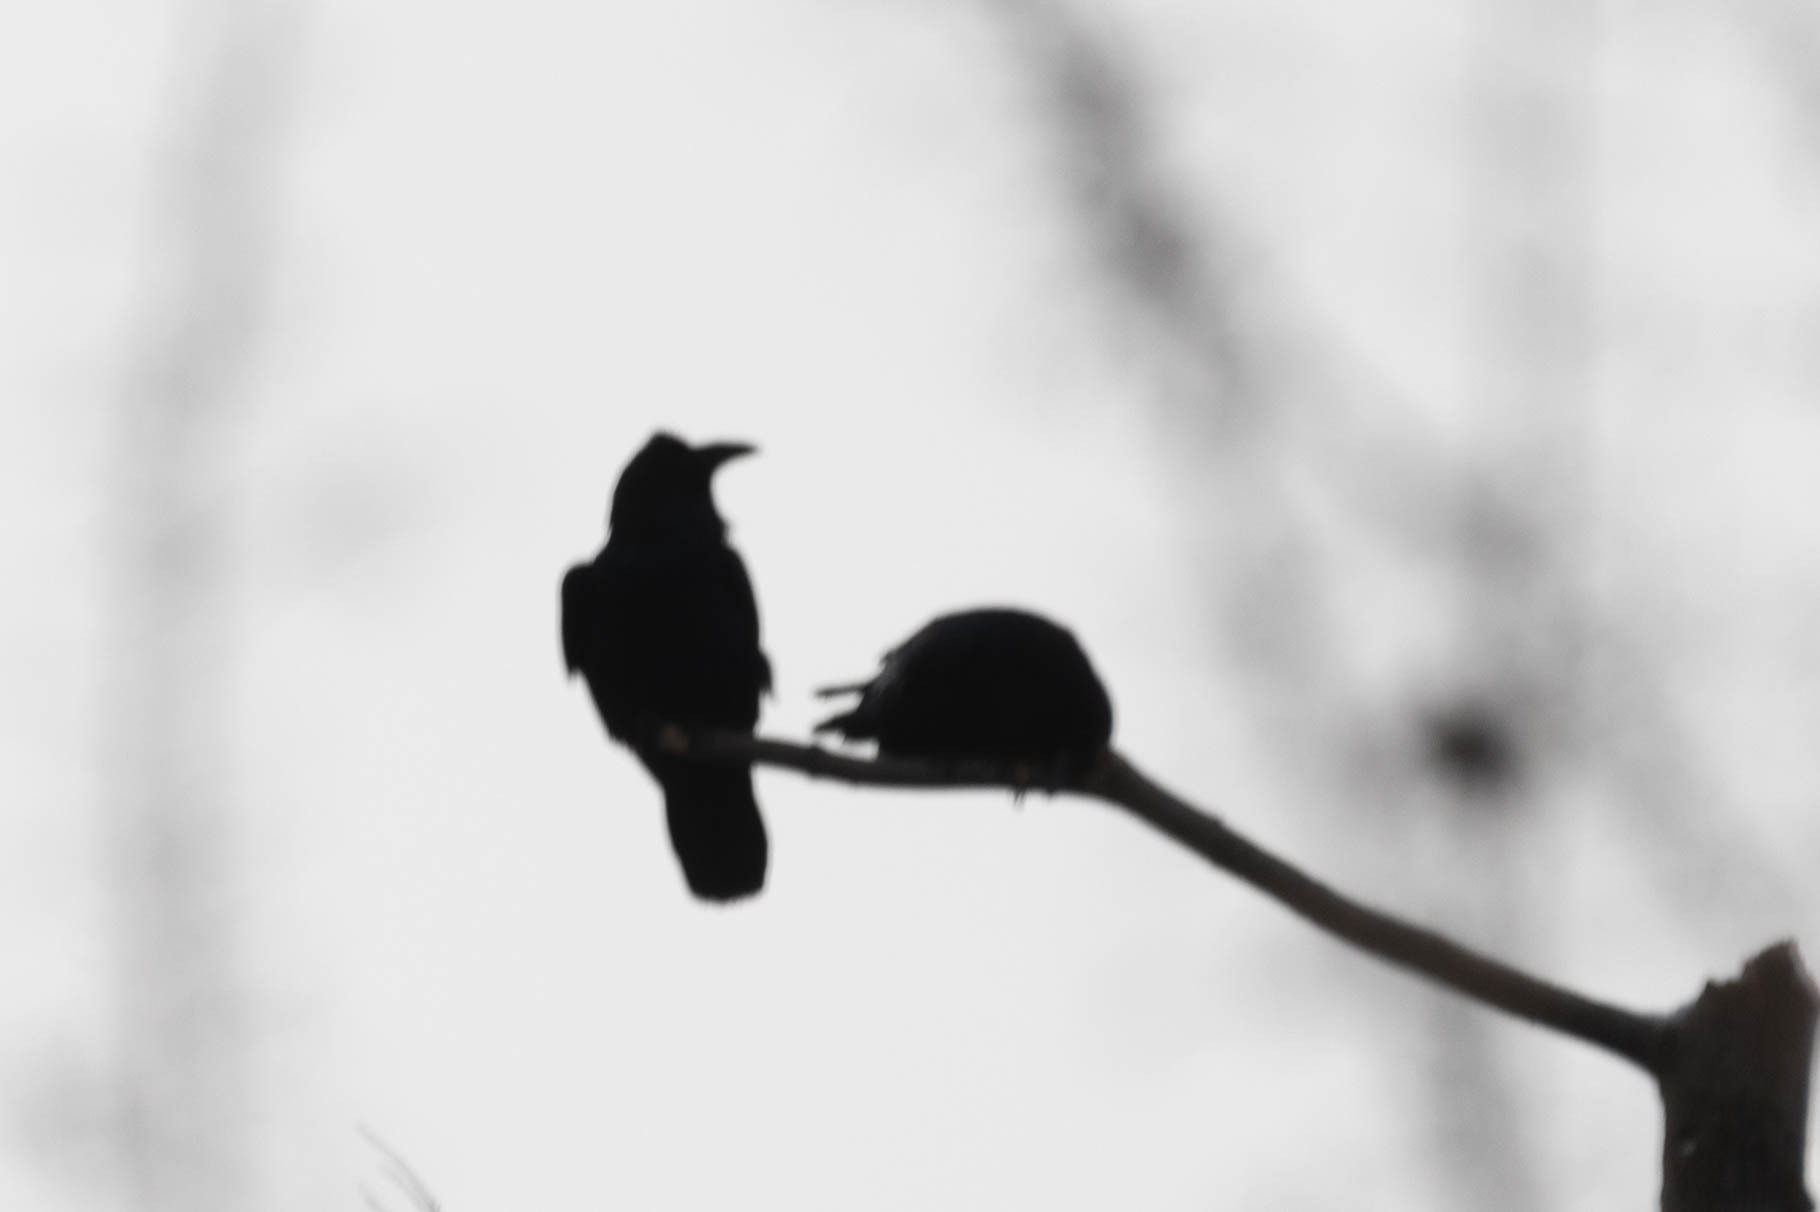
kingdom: Animalia
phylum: Chordata
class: Aves
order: Passeriformes
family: Corvidae
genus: Corvus
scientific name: Corvus corax
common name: Common raven
